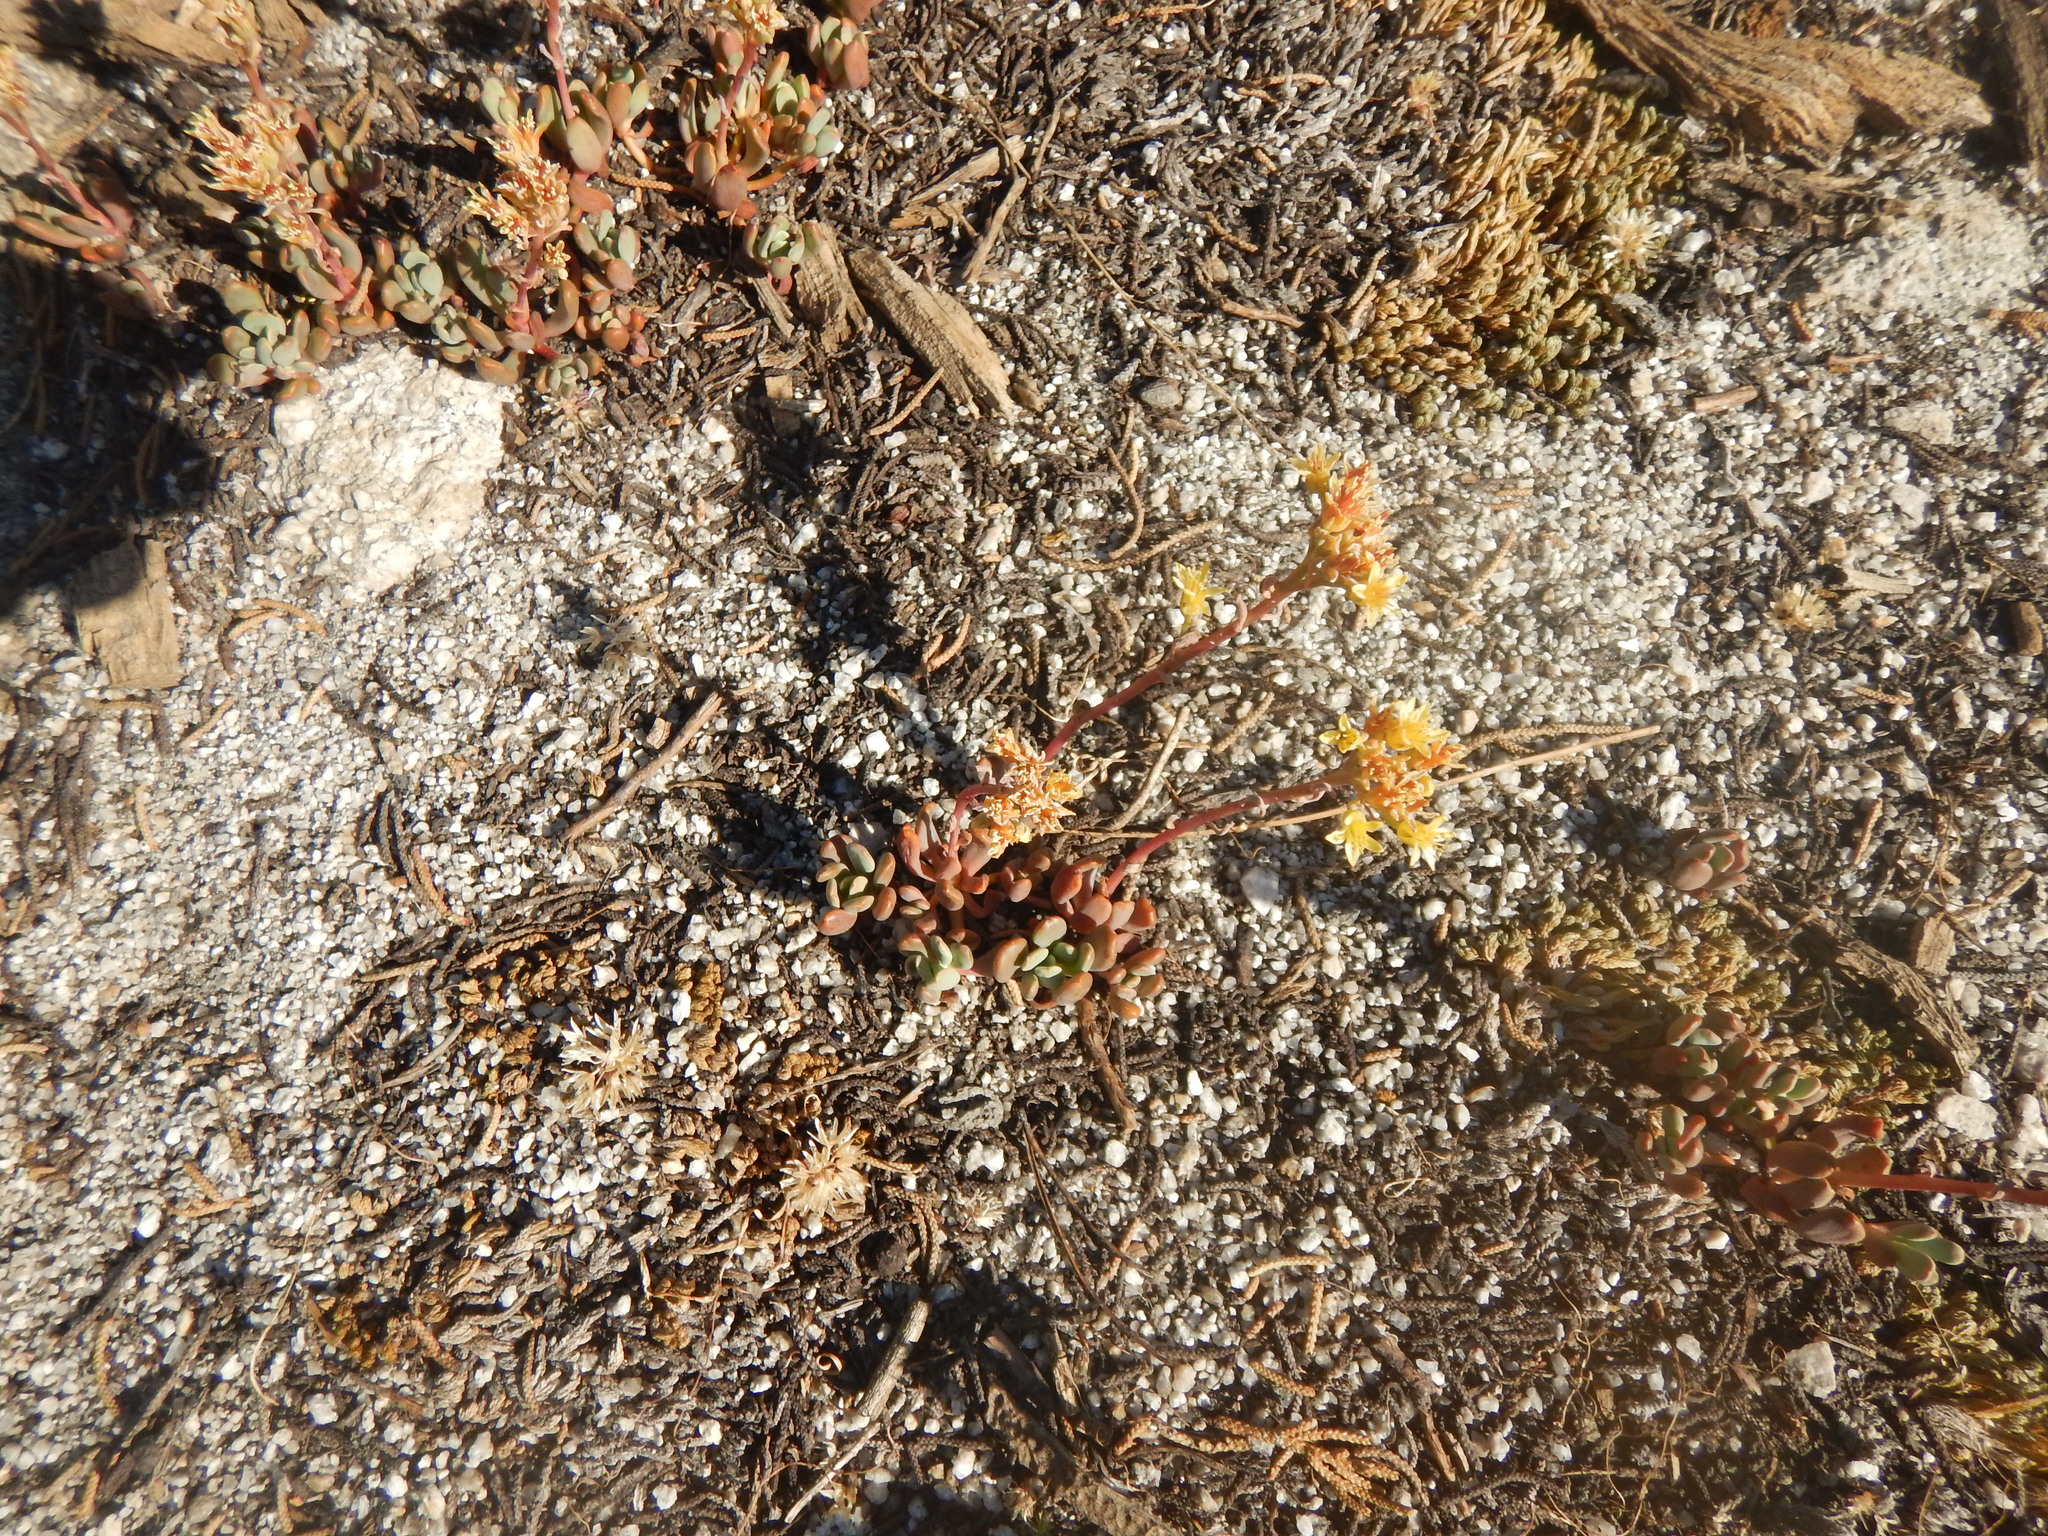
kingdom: Plantae
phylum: Tracheophyta
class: Magnoliopsida
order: Saxifragales
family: Crassulaceae
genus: Sedum
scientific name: Sedum obtusatum
